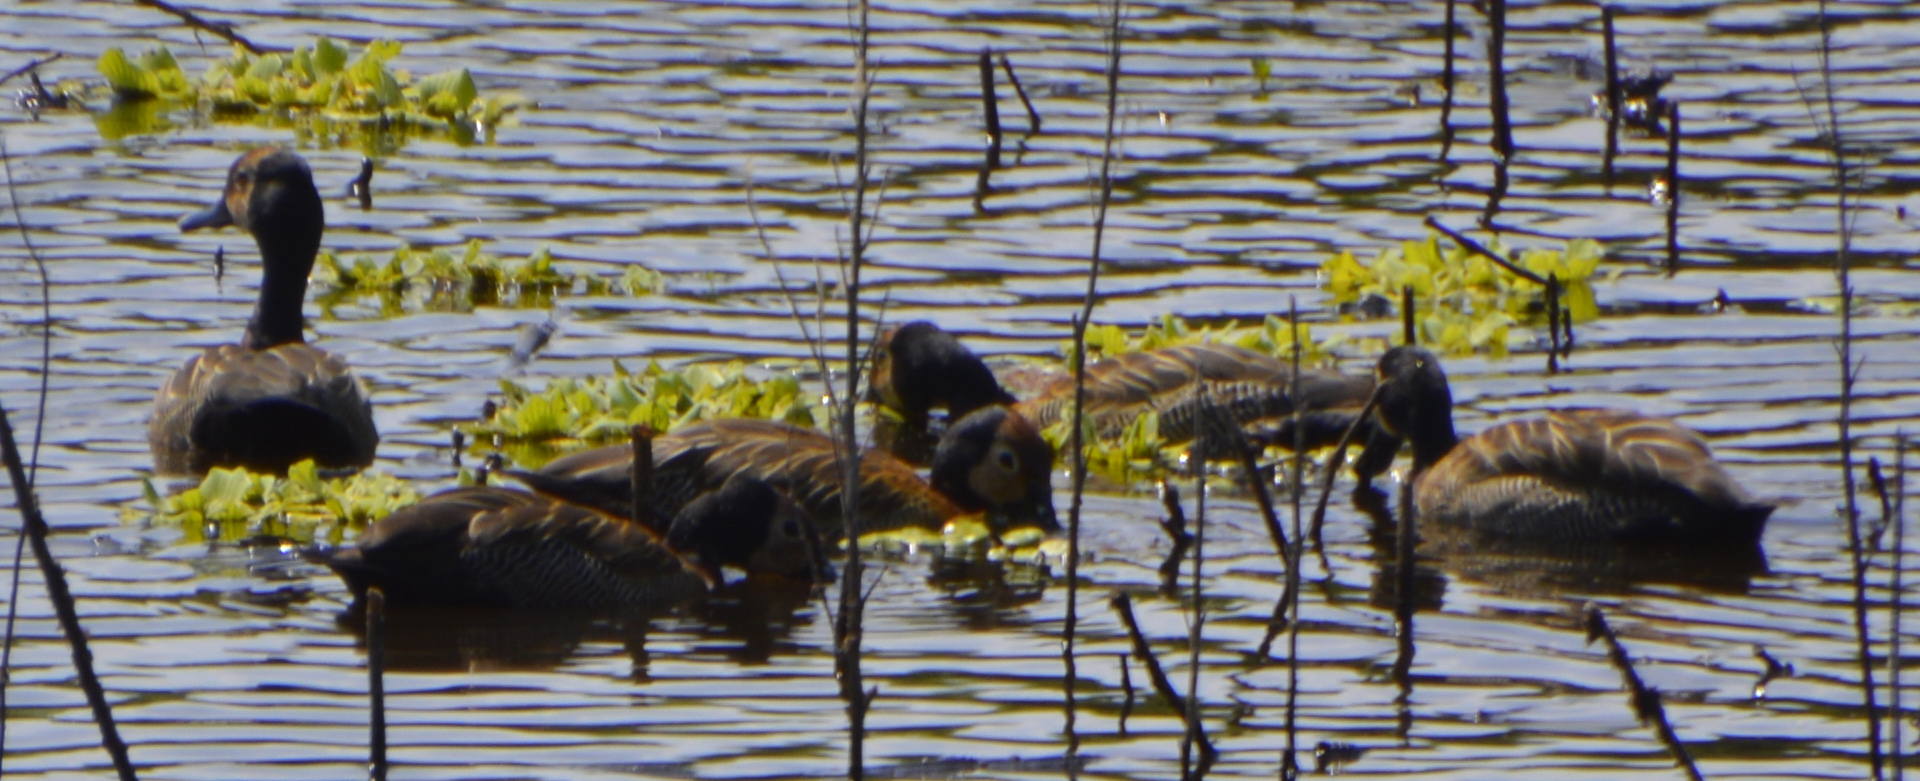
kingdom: Animalia
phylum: Chordata
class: Aves
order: Anseriformes
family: Anatidae
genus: Dendrocygna
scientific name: Dendrocygna viduata
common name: White-faced whistling duck
